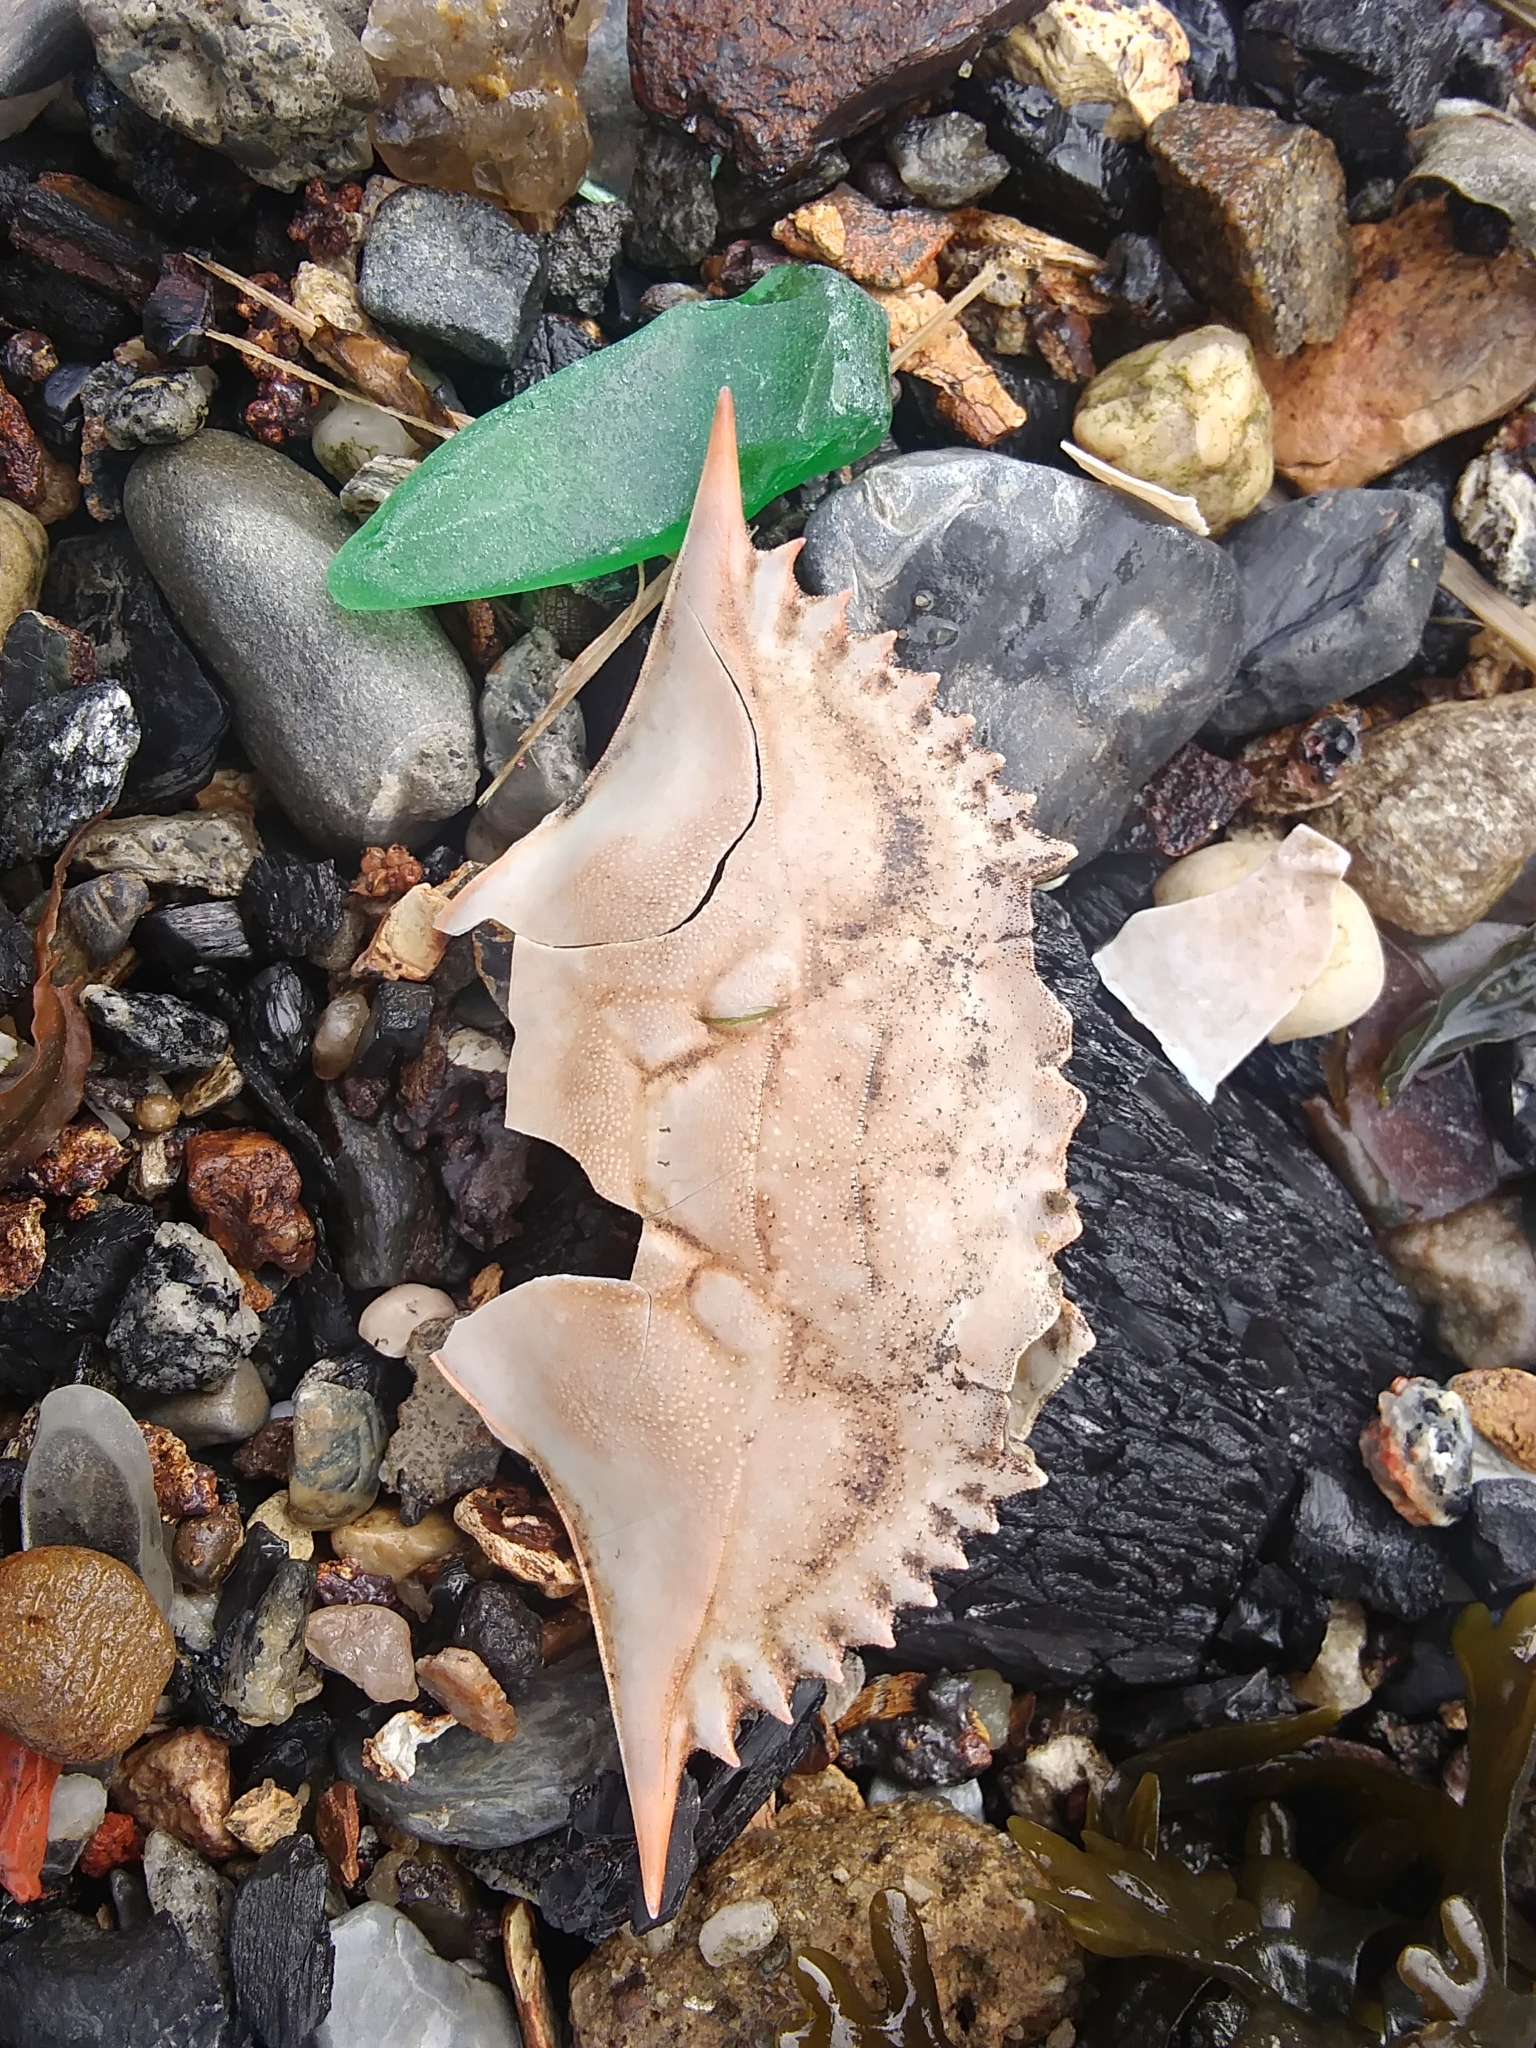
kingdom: Animalia
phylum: Arthropoda
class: Malacostraca
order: Decapoda
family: Portunidae
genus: Callinectes
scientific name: Callinectes sapidus
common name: Blue crab
